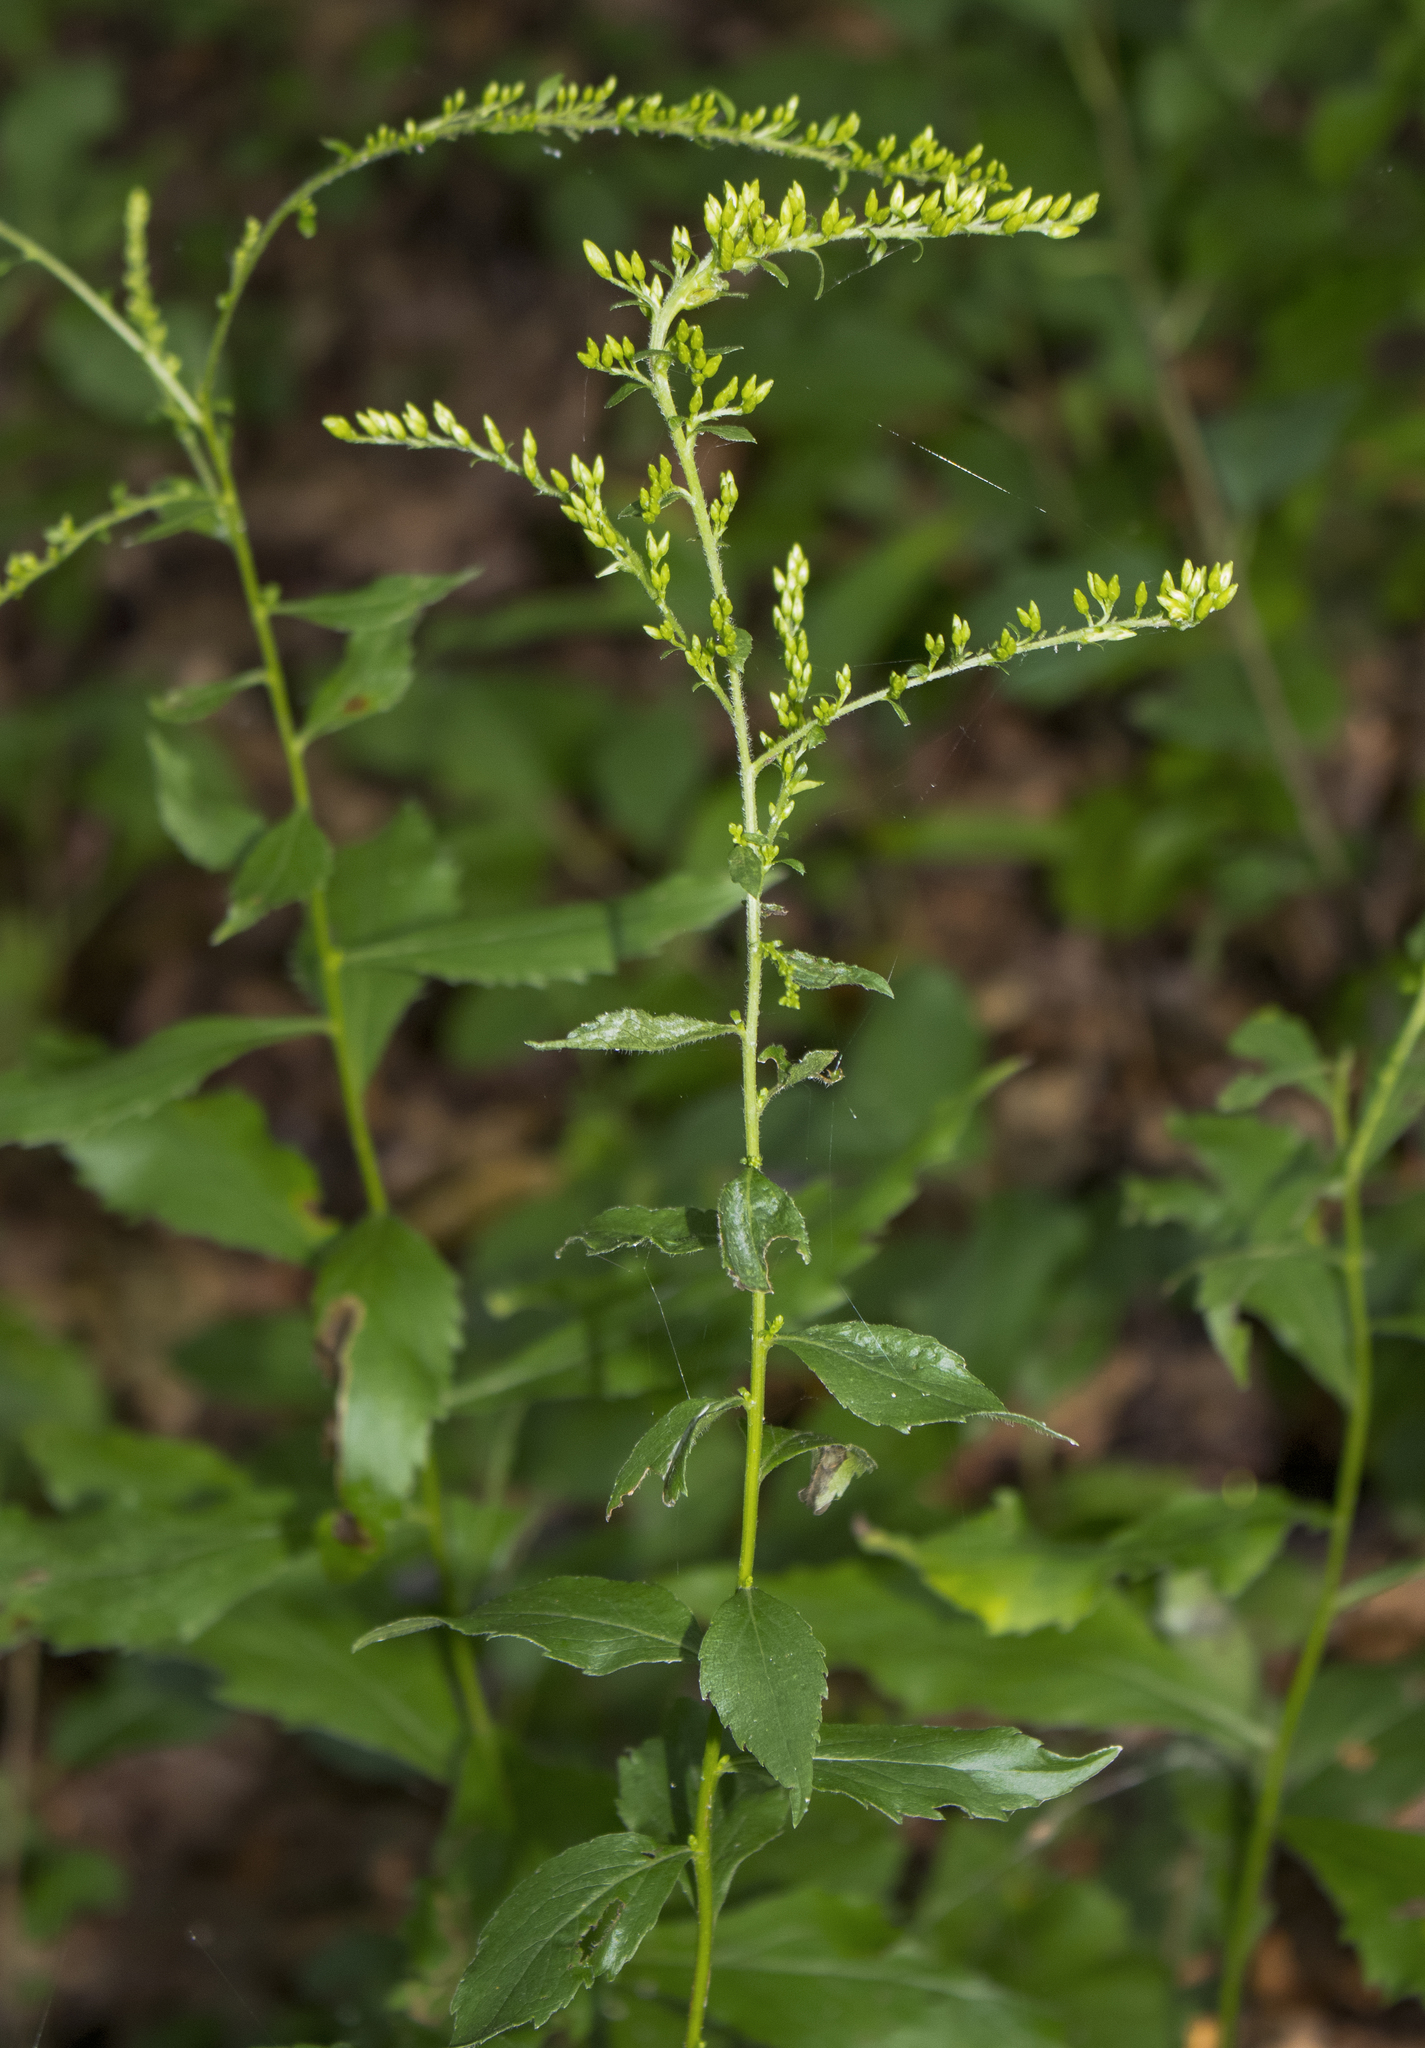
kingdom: Plantae
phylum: Tracheophyta
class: Magnoliopsida
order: Asterales
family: Asteraceae
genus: Solidago
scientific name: Solidago ulmifolia
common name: Elm-leaf goldenrod
